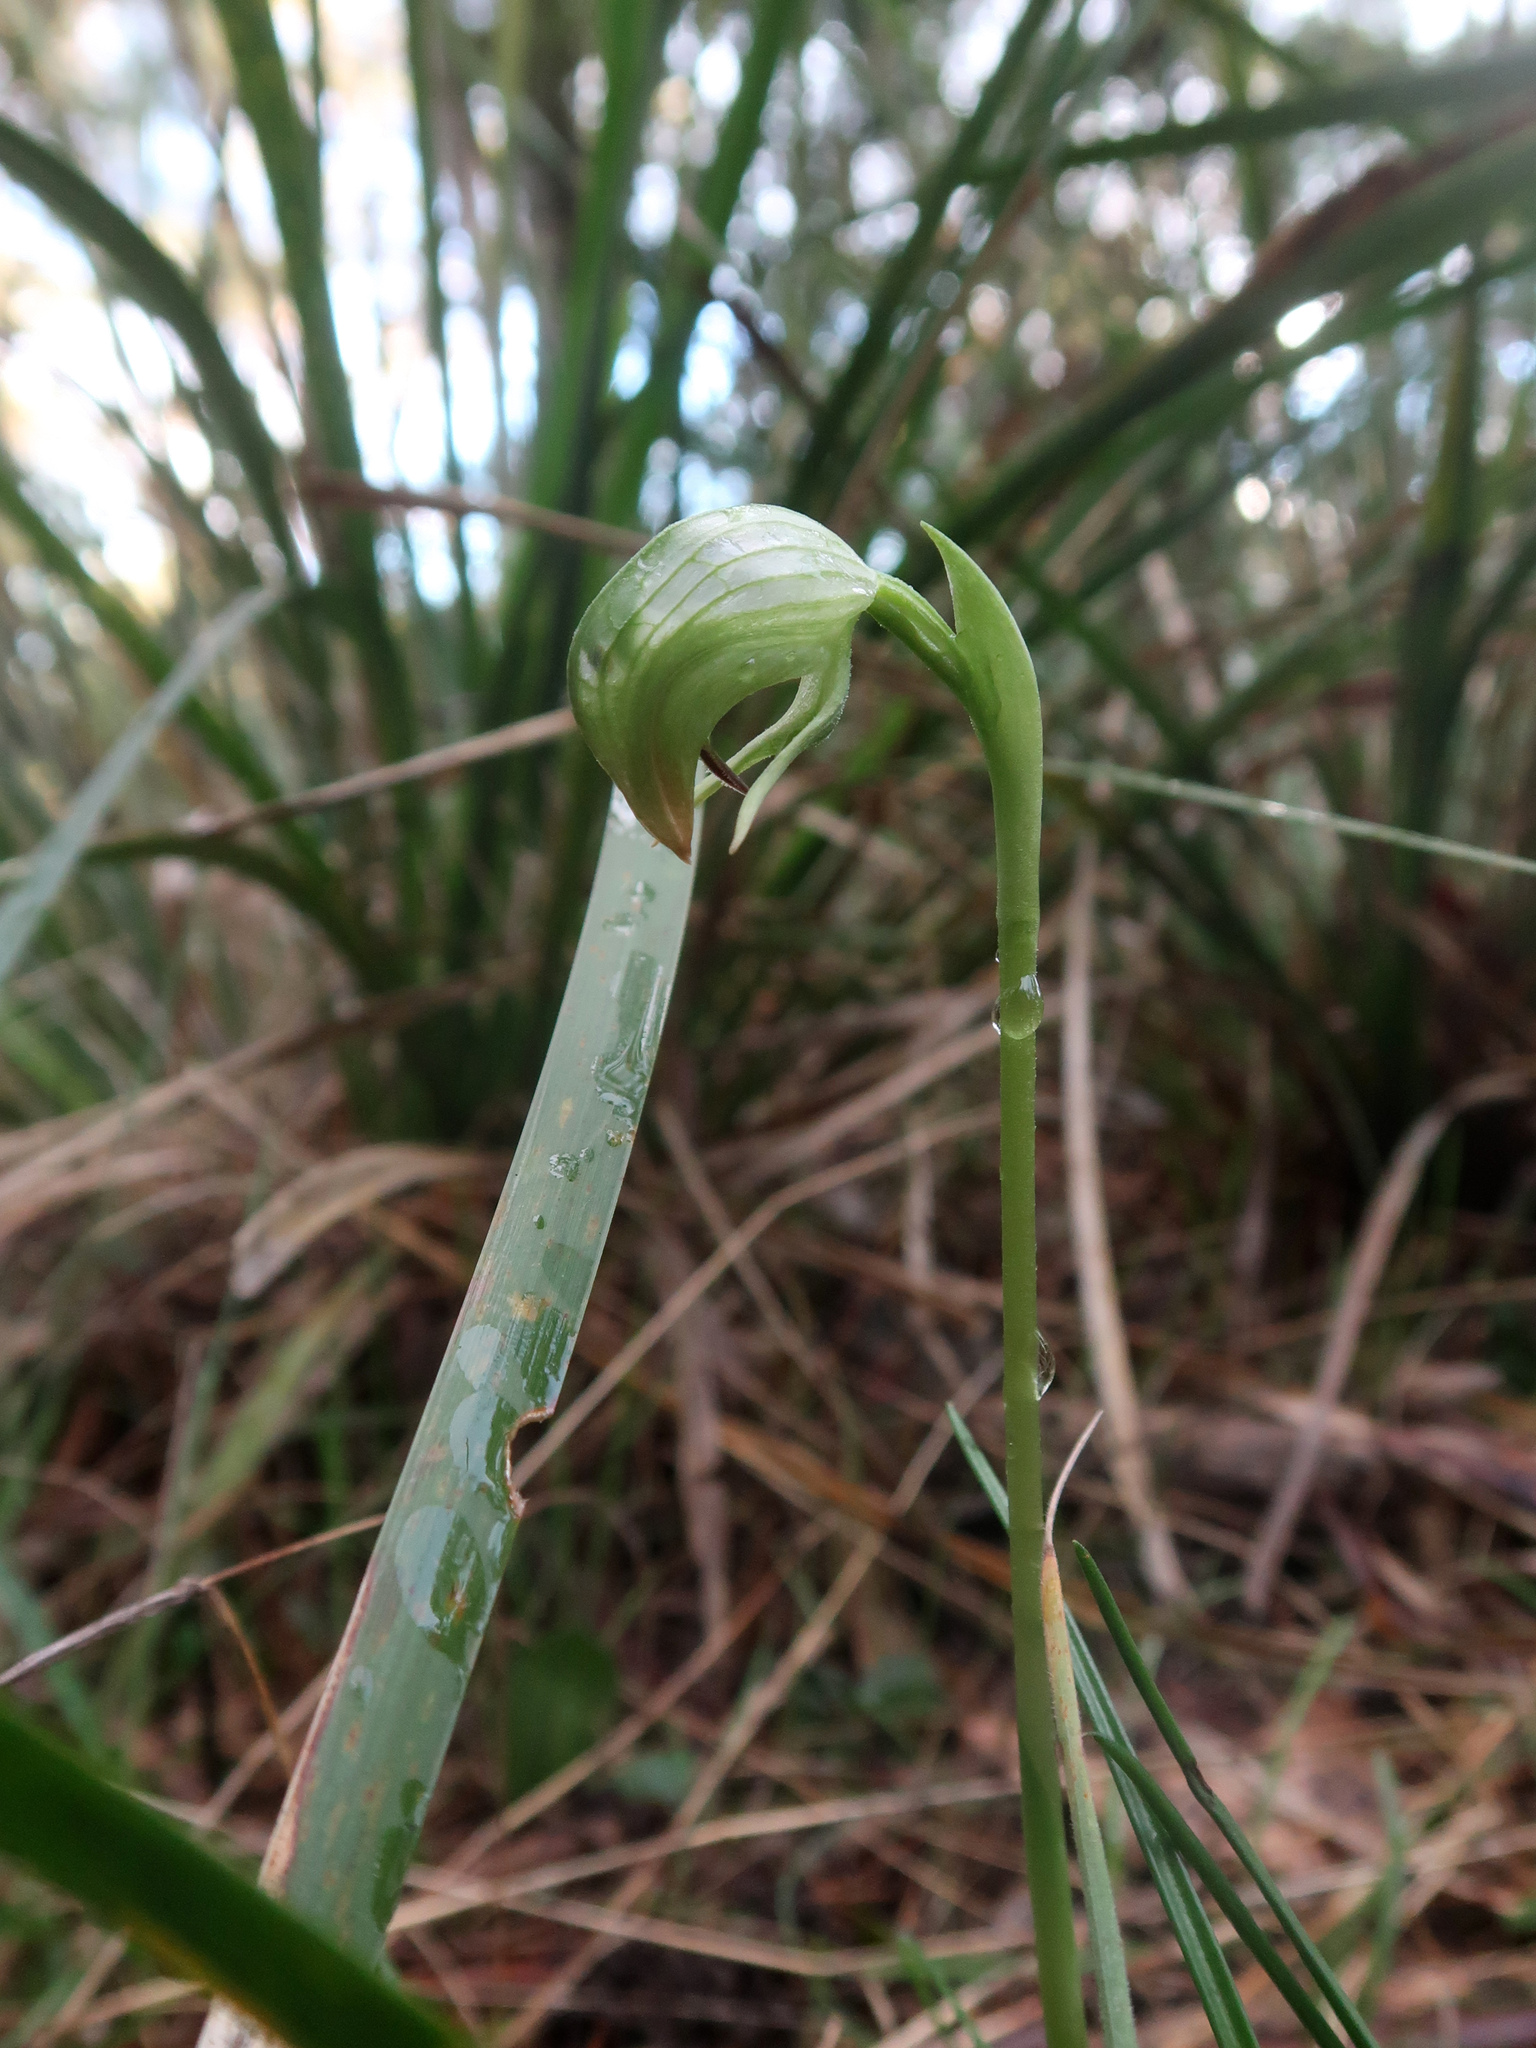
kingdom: Plantae
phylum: Tracheophyta
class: Liliopsida
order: Asparagales
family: Orchidaceae
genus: Pterostylis
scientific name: Pterostylis nutans
